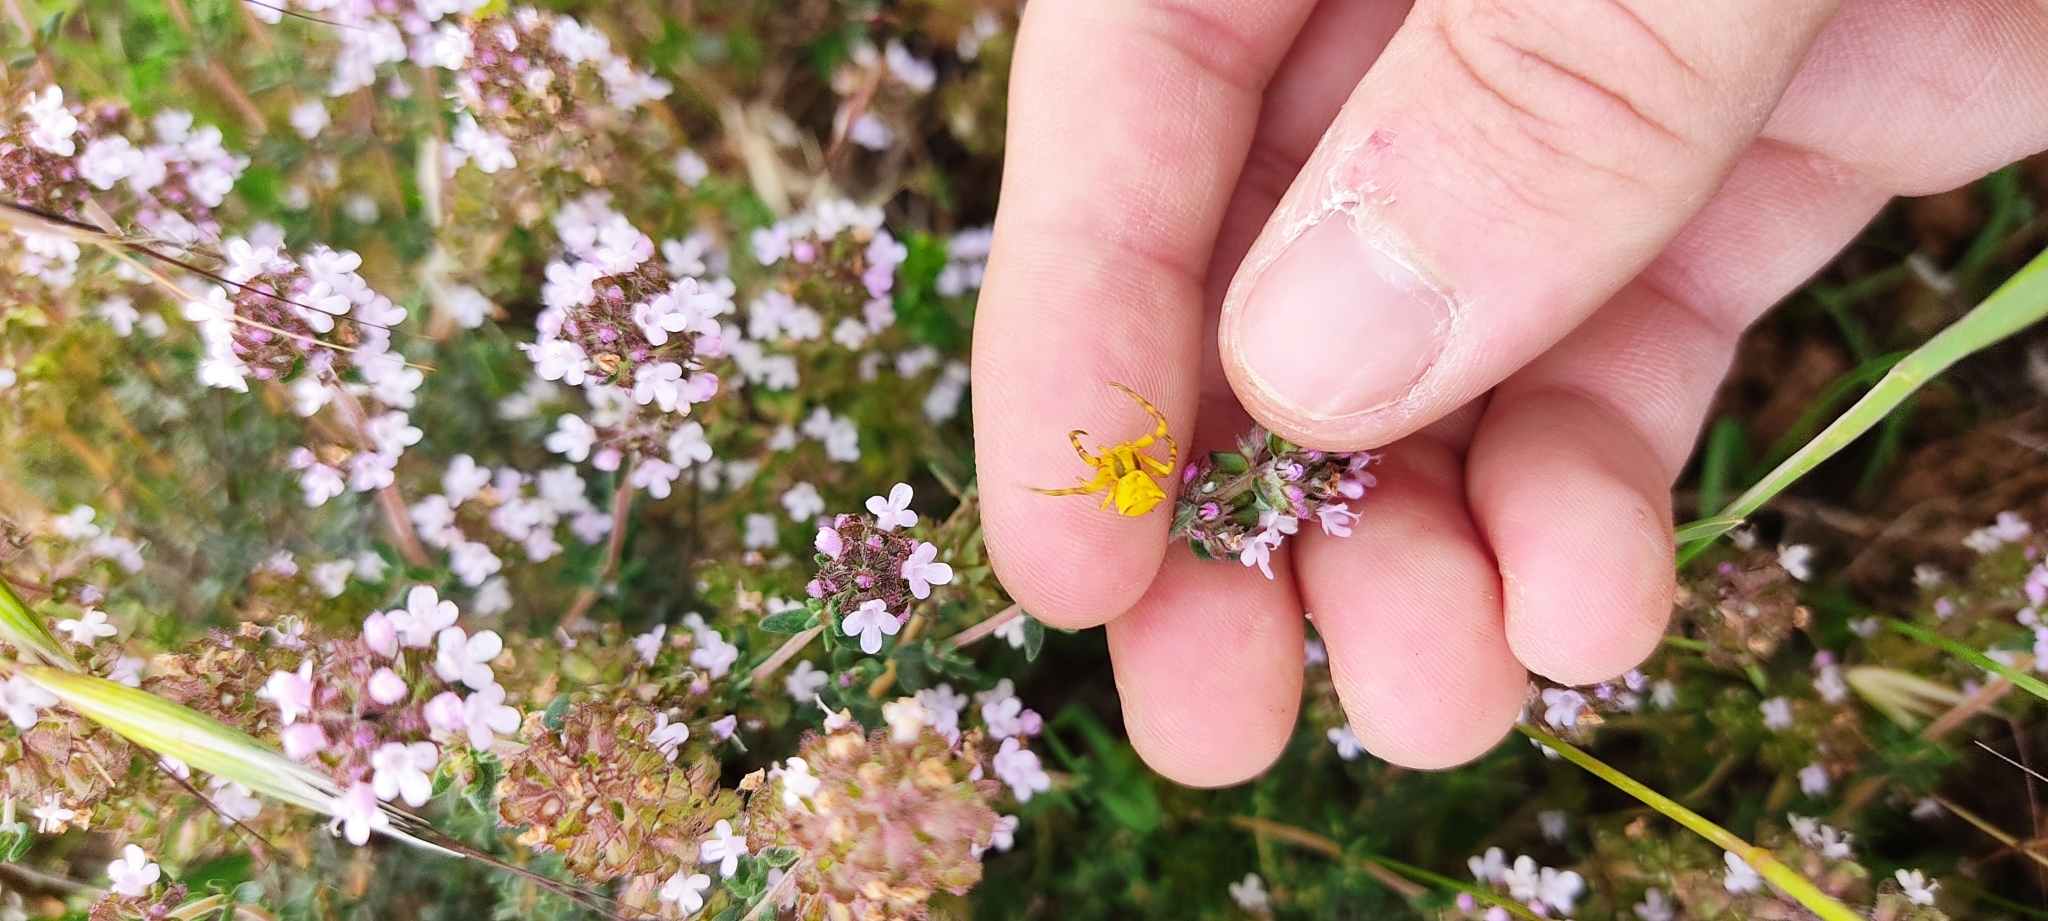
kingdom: Animalia
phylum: Arthropoda
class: Arachnida
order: Araneae
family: Thomisidae
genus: Thomisus
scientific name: Thomisus onustus
